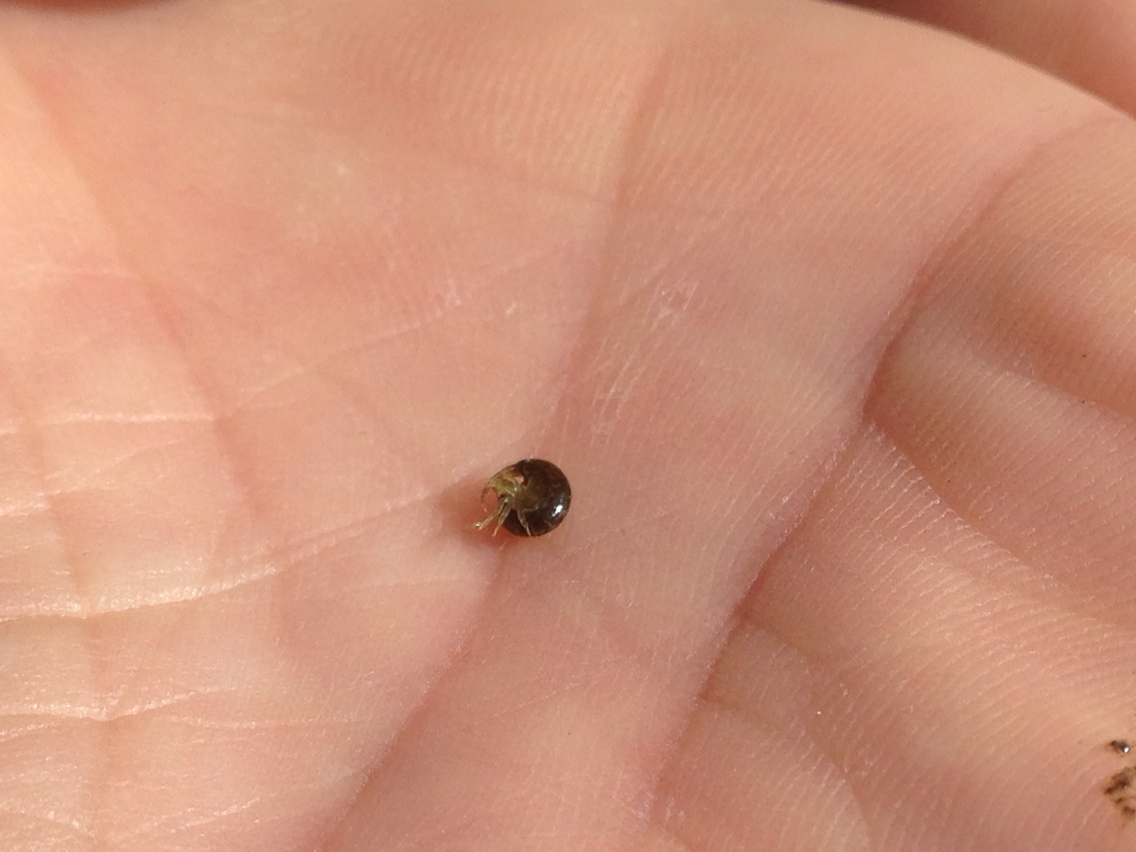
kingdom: Animalia
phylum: Arthropoda
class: Malacostraca
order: Amphipoda
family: Melitidae
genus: Melita
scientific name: Melita nitida
